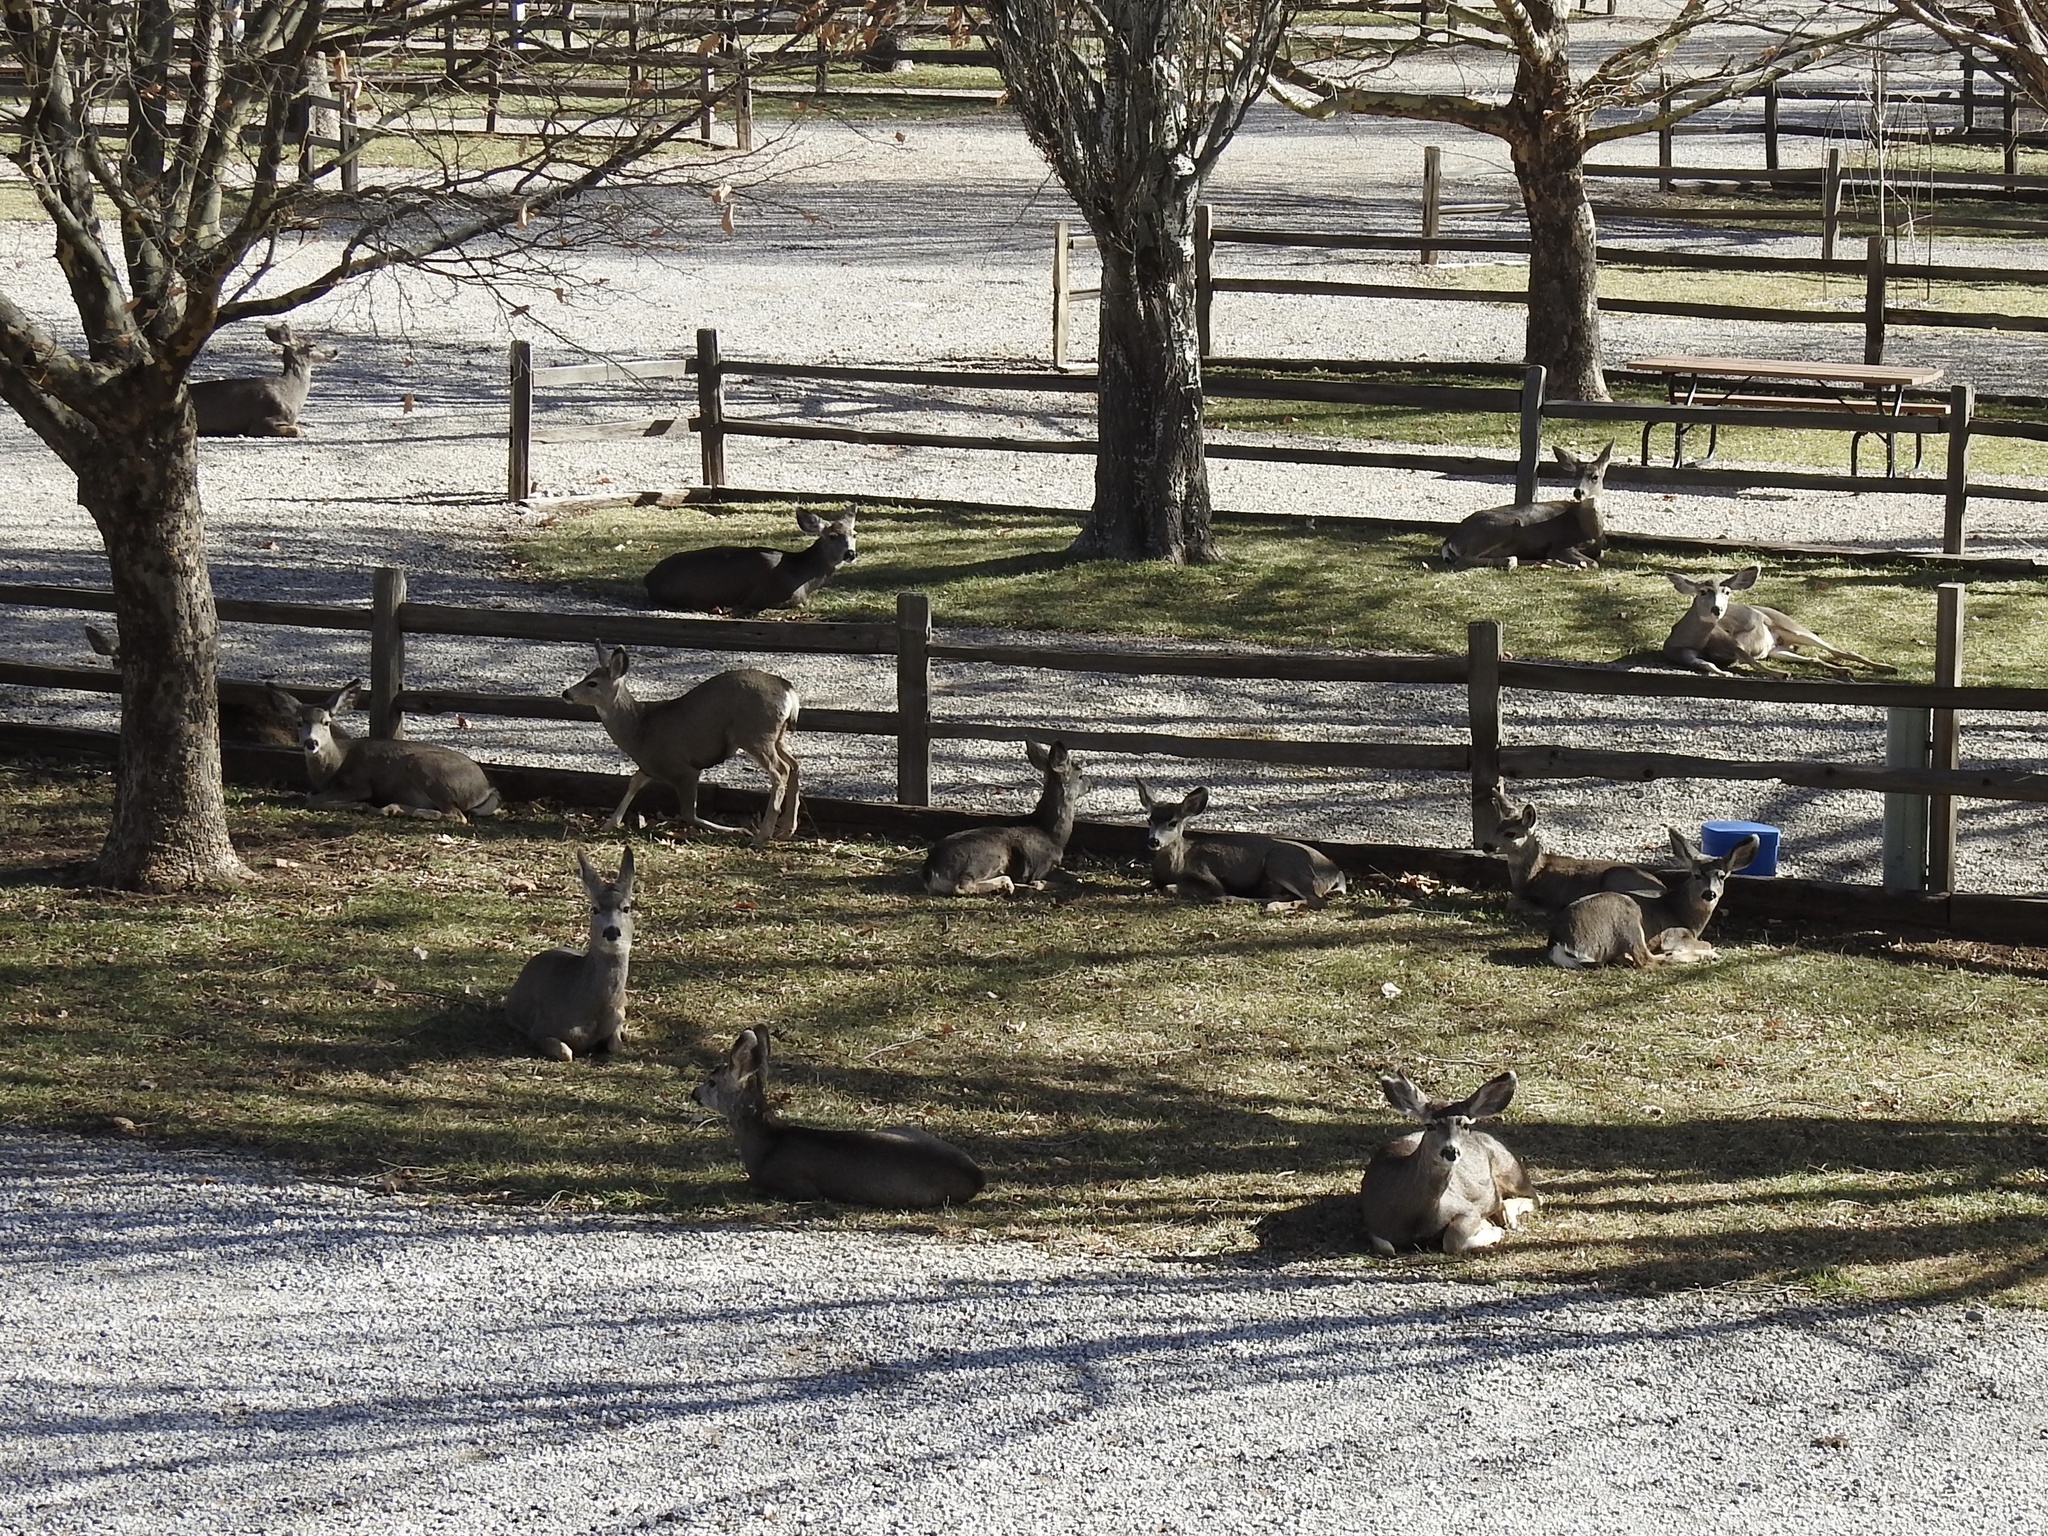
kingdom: Animalia
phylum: Chordata
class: Mammalia
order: Artiodactyla
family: Cervidae
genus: Odocoileus
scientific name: Odocoileus hemionus
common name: Mule deer
